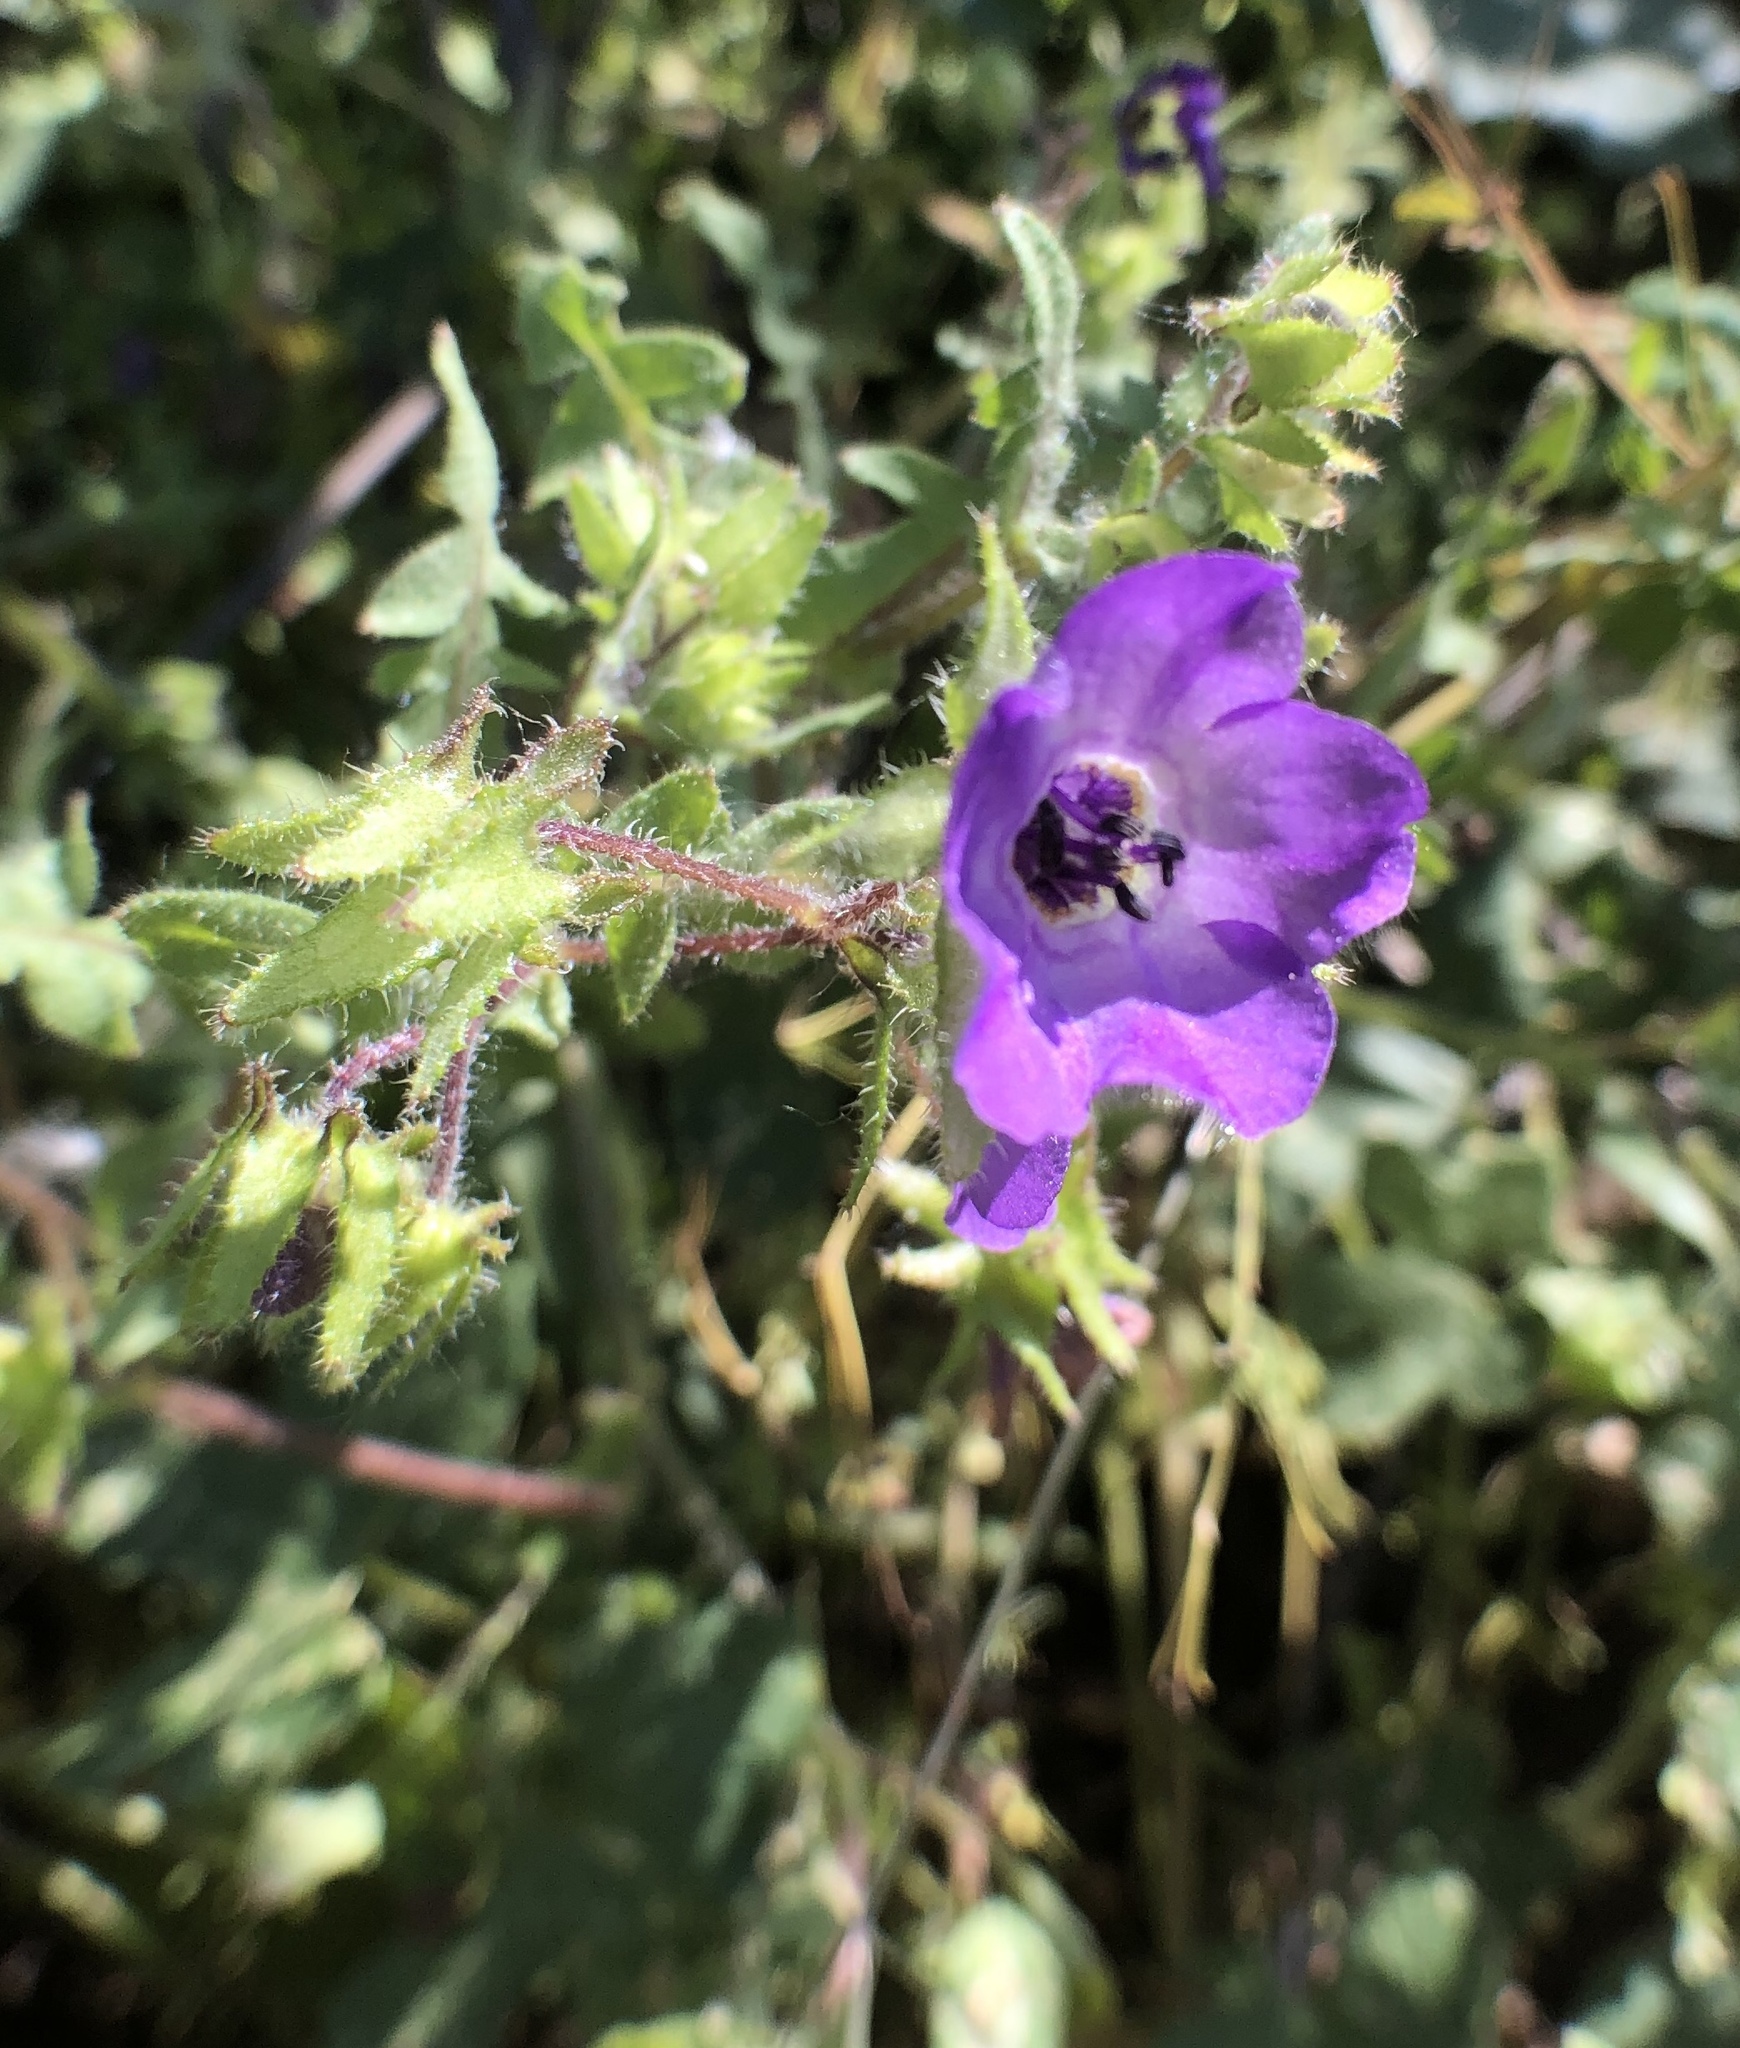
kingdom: Plantae
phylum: Tracheophyta
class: Magnoliopsida
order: Boraginales
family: Hydrophyllaceae
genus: Pholistoma
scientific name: Pholistoma auritum
